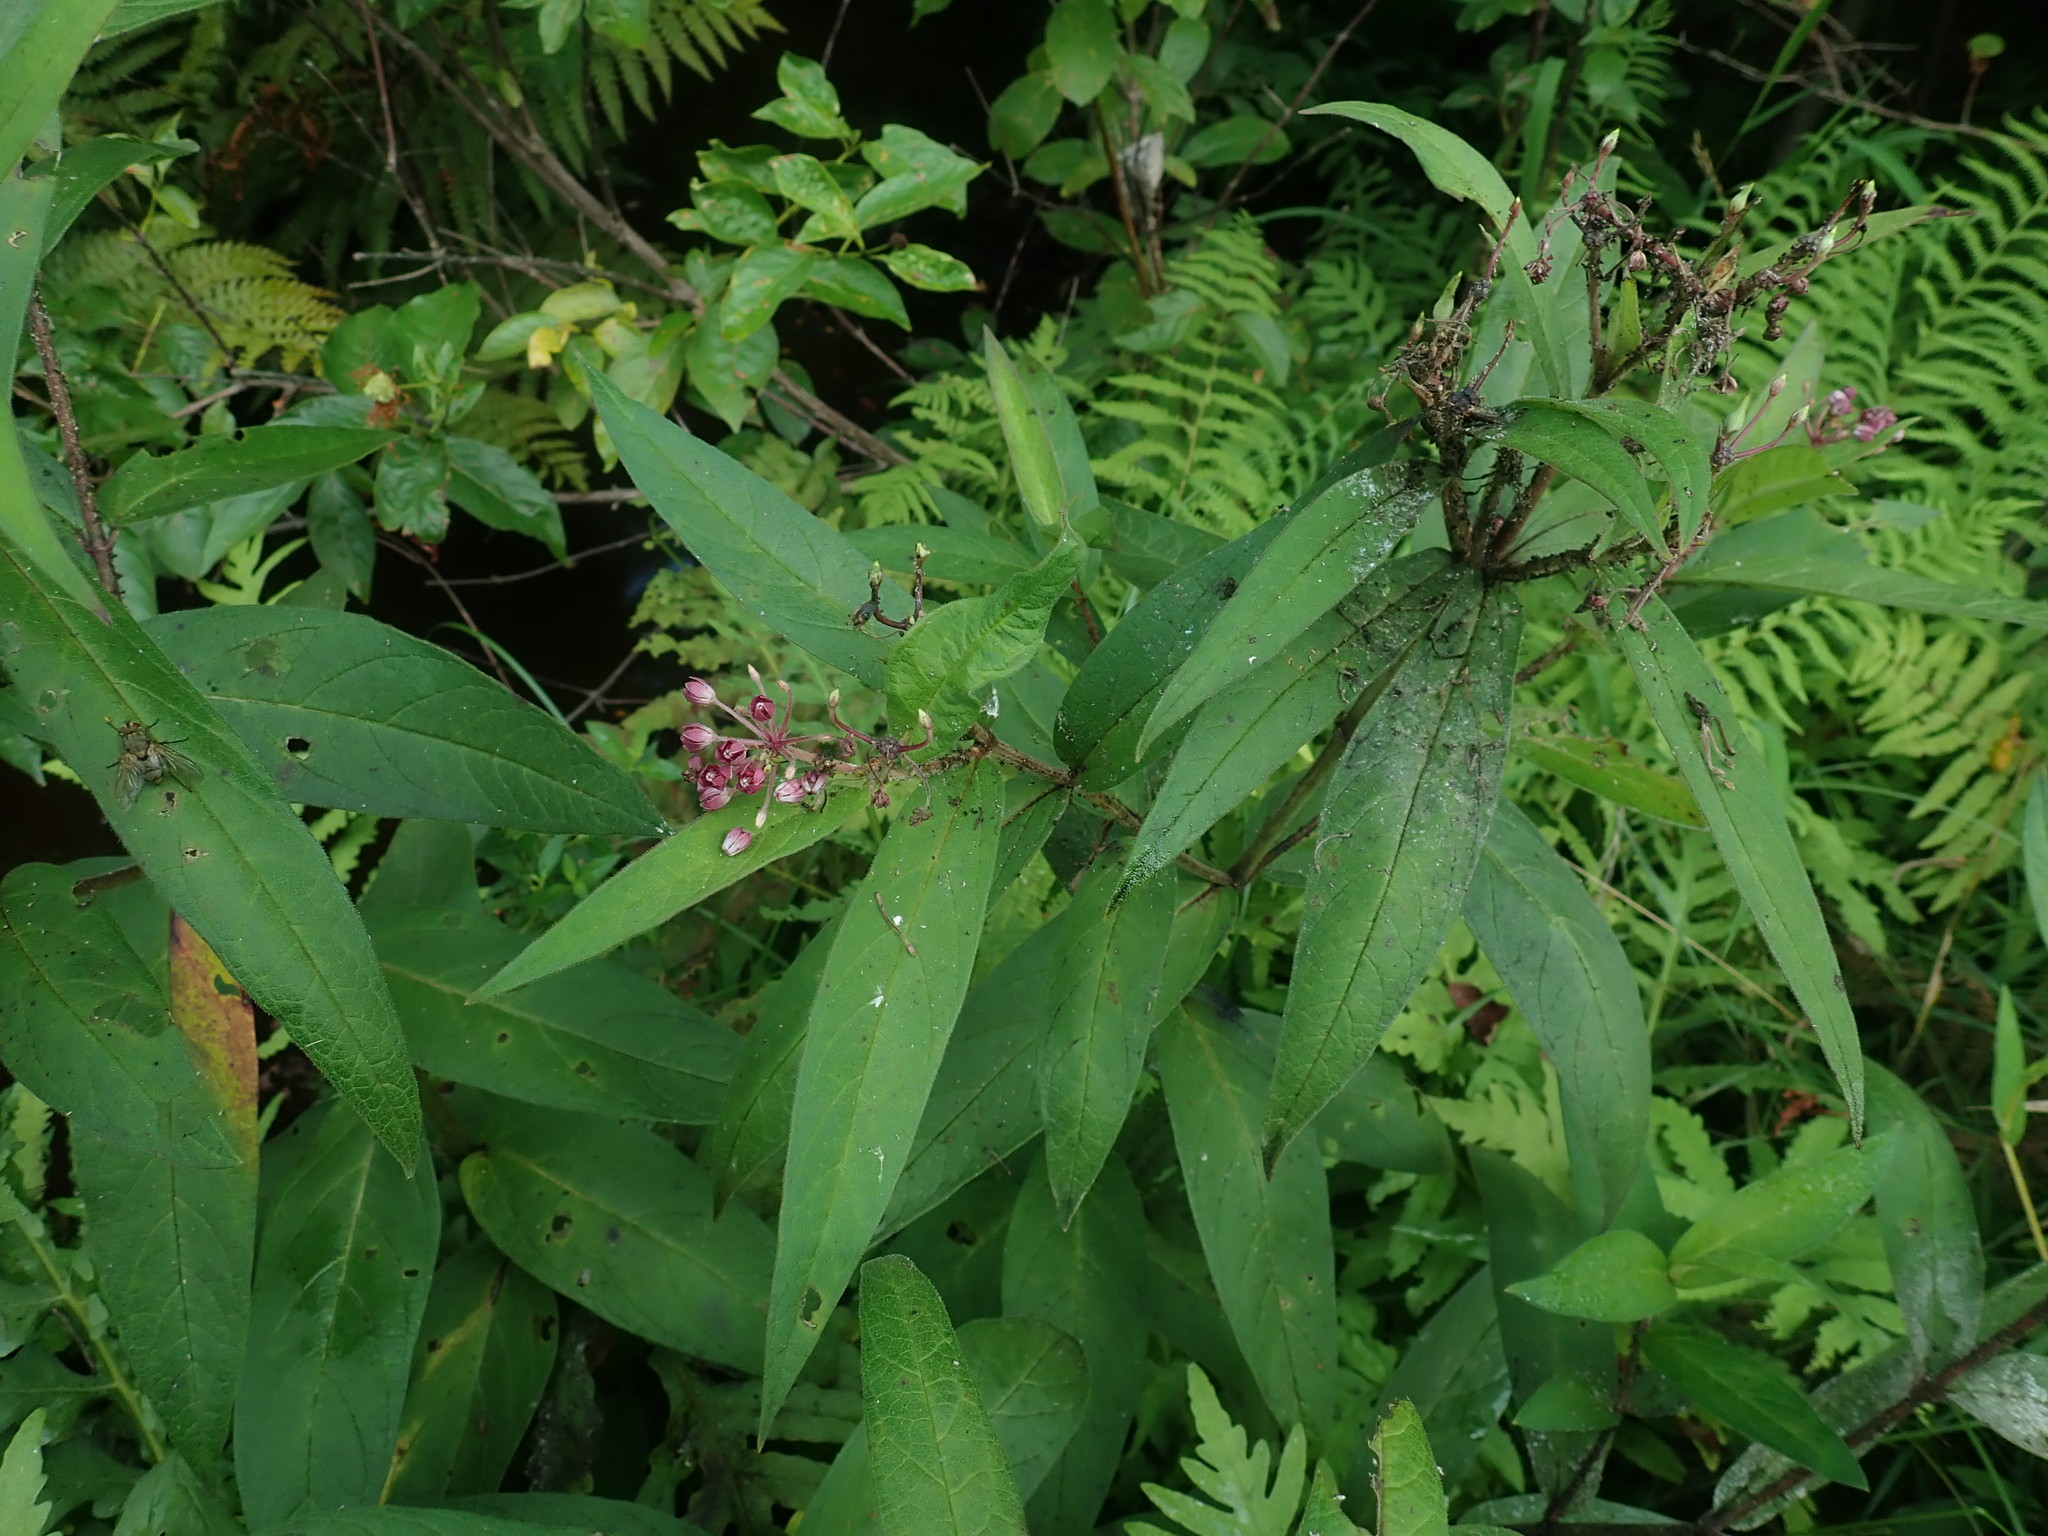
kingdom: Plantae
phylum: Tracheophyta
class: Magnoliopsida
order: Gentianales
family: Apocynaceae
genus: Asclepias
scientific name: Asclepias incarnata
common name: Swamp milkweed
